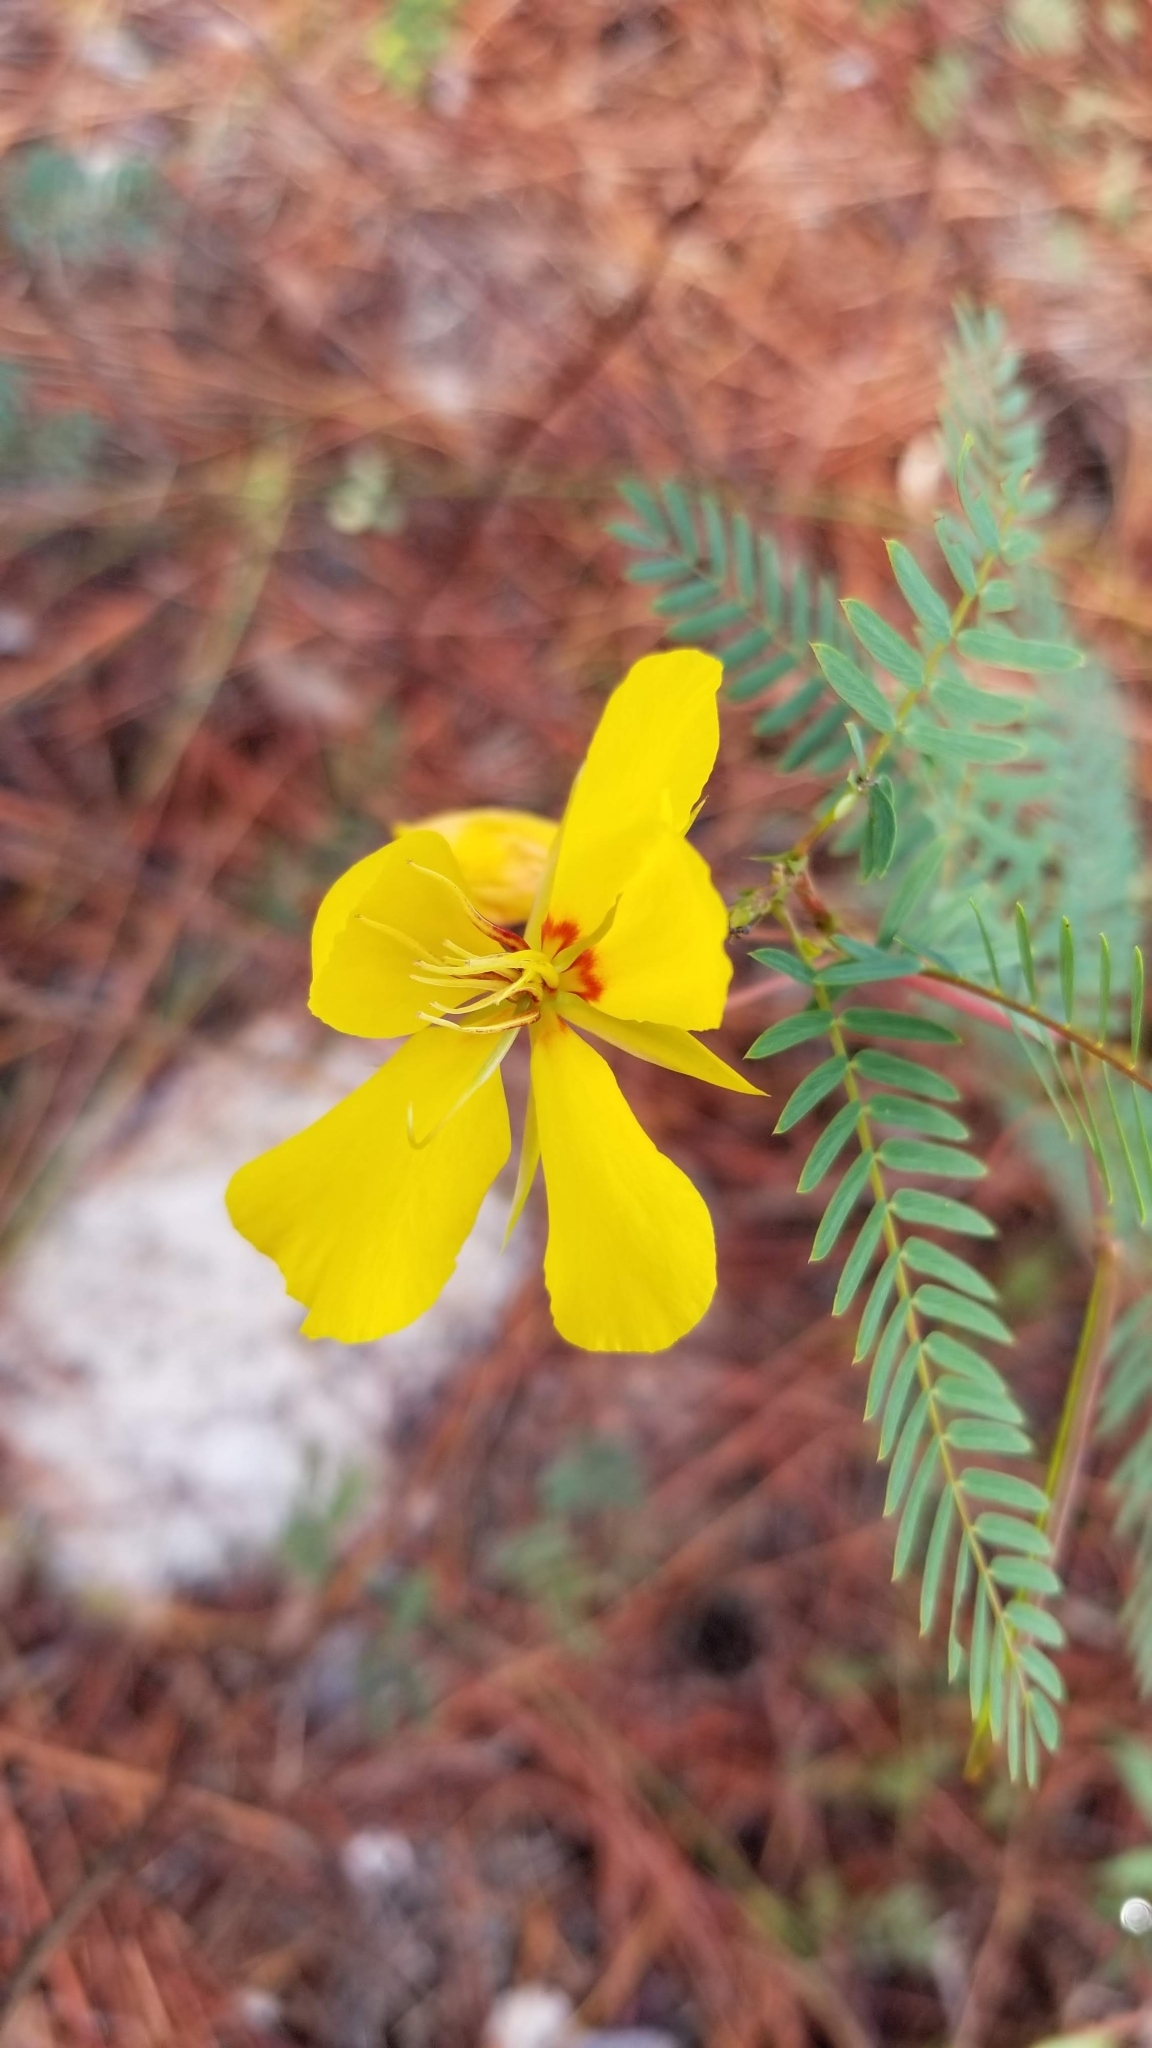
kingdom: Plantae
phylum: Tracheophyta
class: Magnoliopsida
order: Fabales
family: Fabaceae
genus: Chamaecrista
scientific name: Chamaecrista fasciculata
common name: Golden cassia
